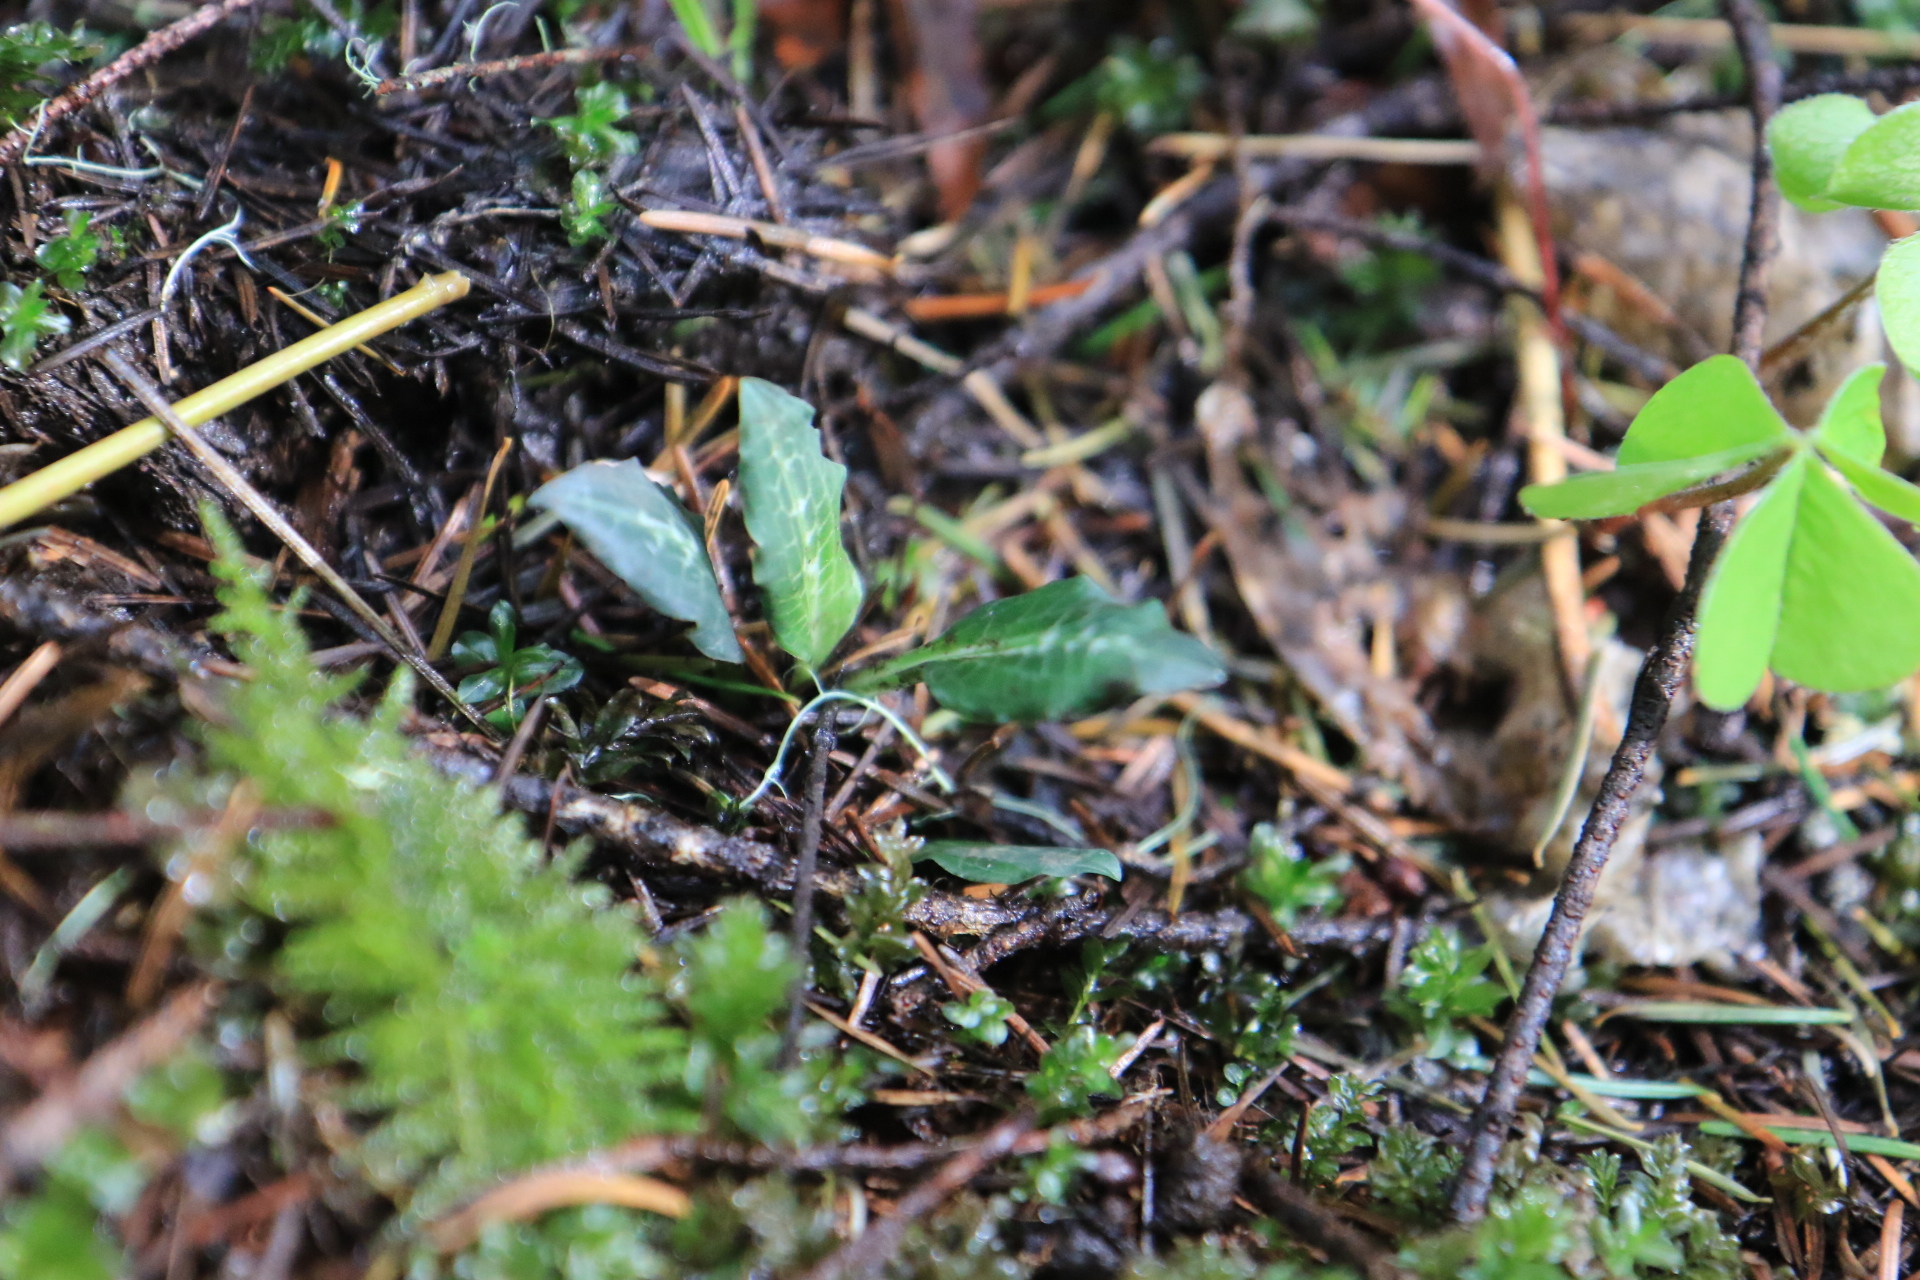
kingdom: Plantae
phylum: Tracheophyta
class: Liliopsida
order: Asparagales
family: Orchidaceae
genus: Goodyera
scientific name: Goodyera oblongifolia
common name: Giant rattlesnake-plantain
